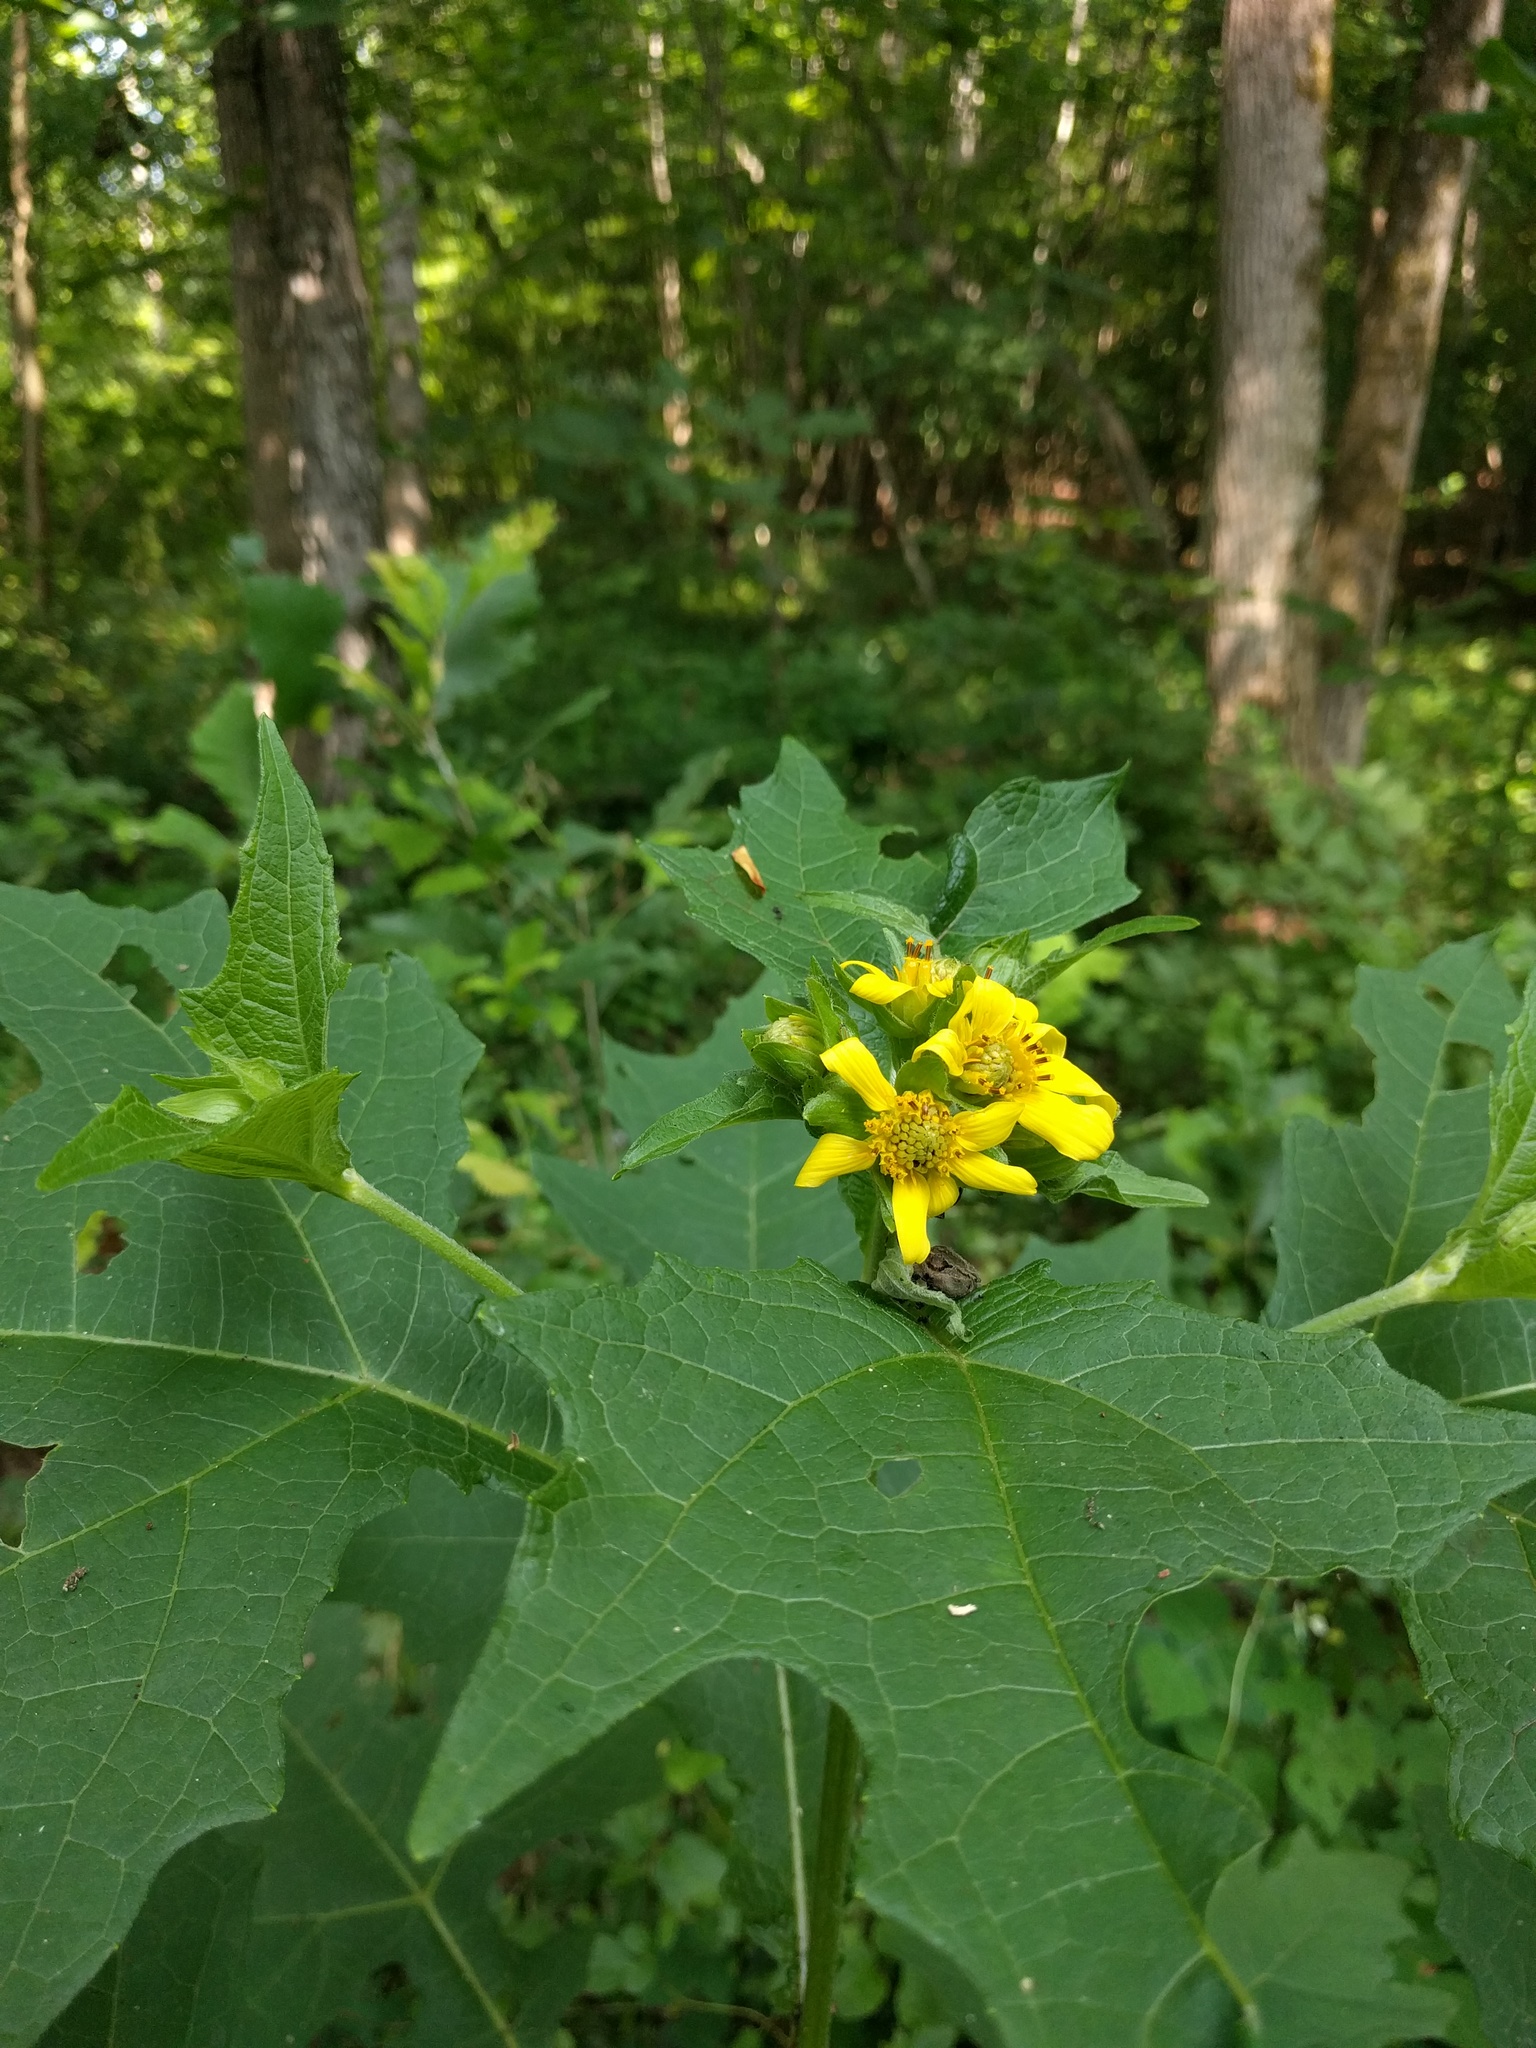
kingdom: Plantae
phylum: Tracheophyta
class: Magnoliopsida
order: Asterales
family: Asteraceae
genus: Smallanthus
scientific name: Smallanthus uvedalia
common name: Bear's-foot
